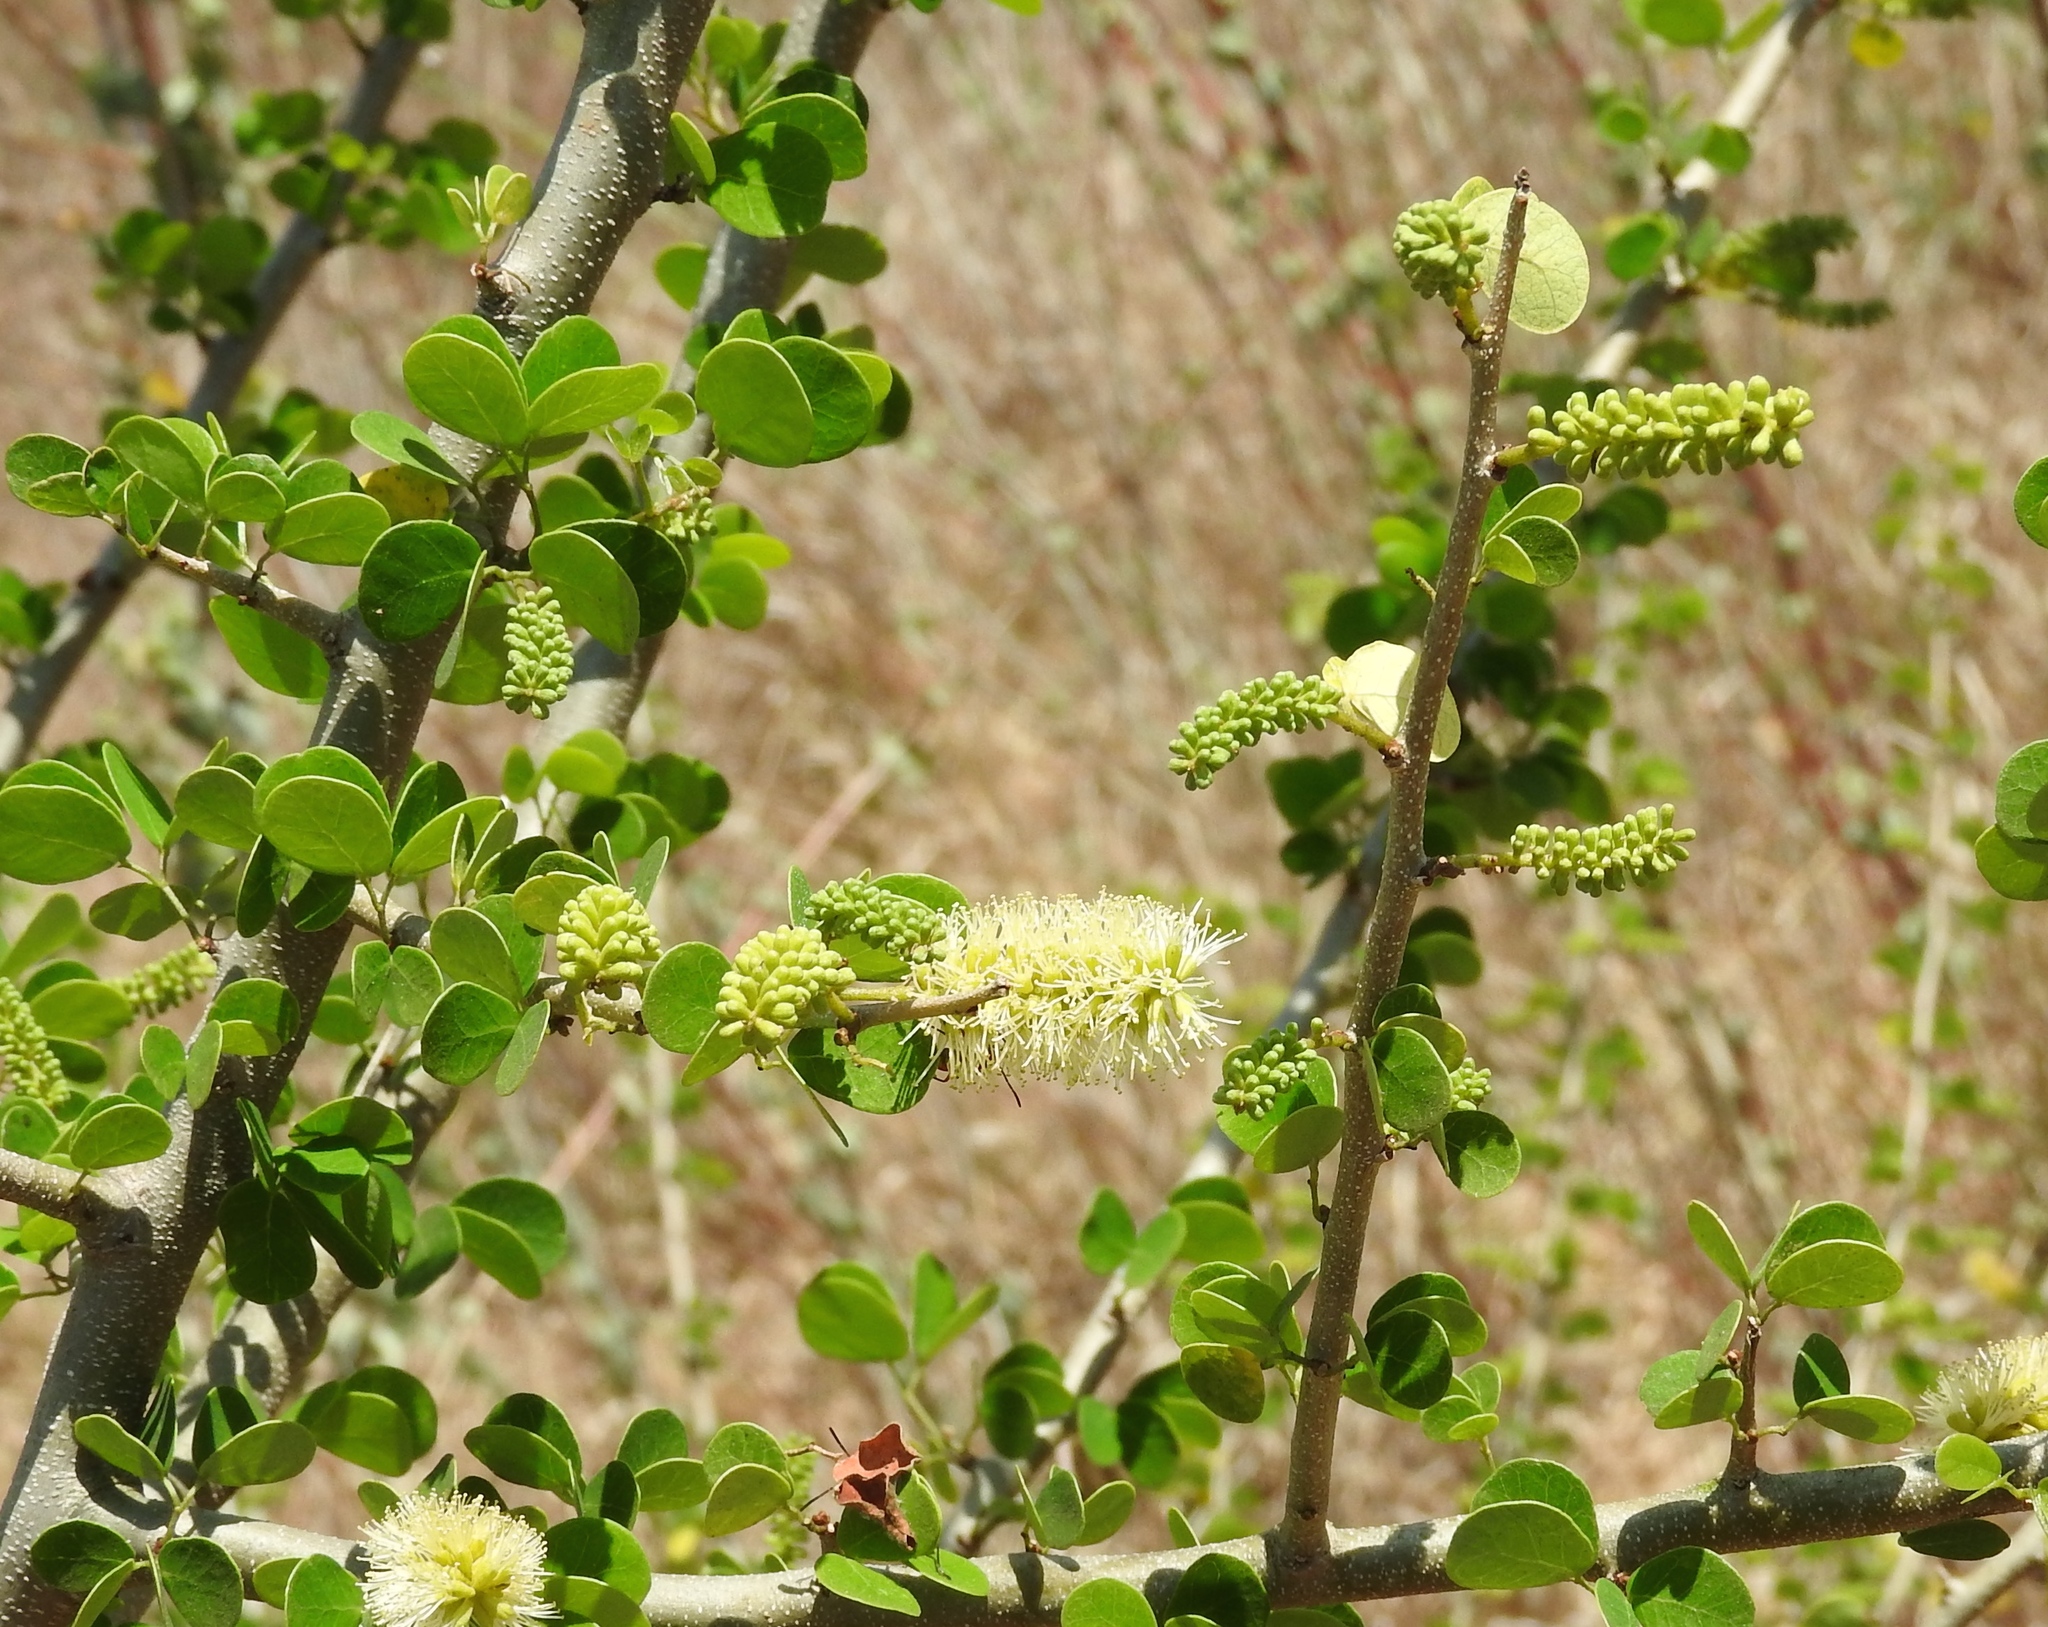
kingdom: Plantae
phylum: Tracheophyta
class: Magnoliopsida
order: Fabales
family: Fabaceae
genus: Microlobius
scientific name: Microlobius foetidus
